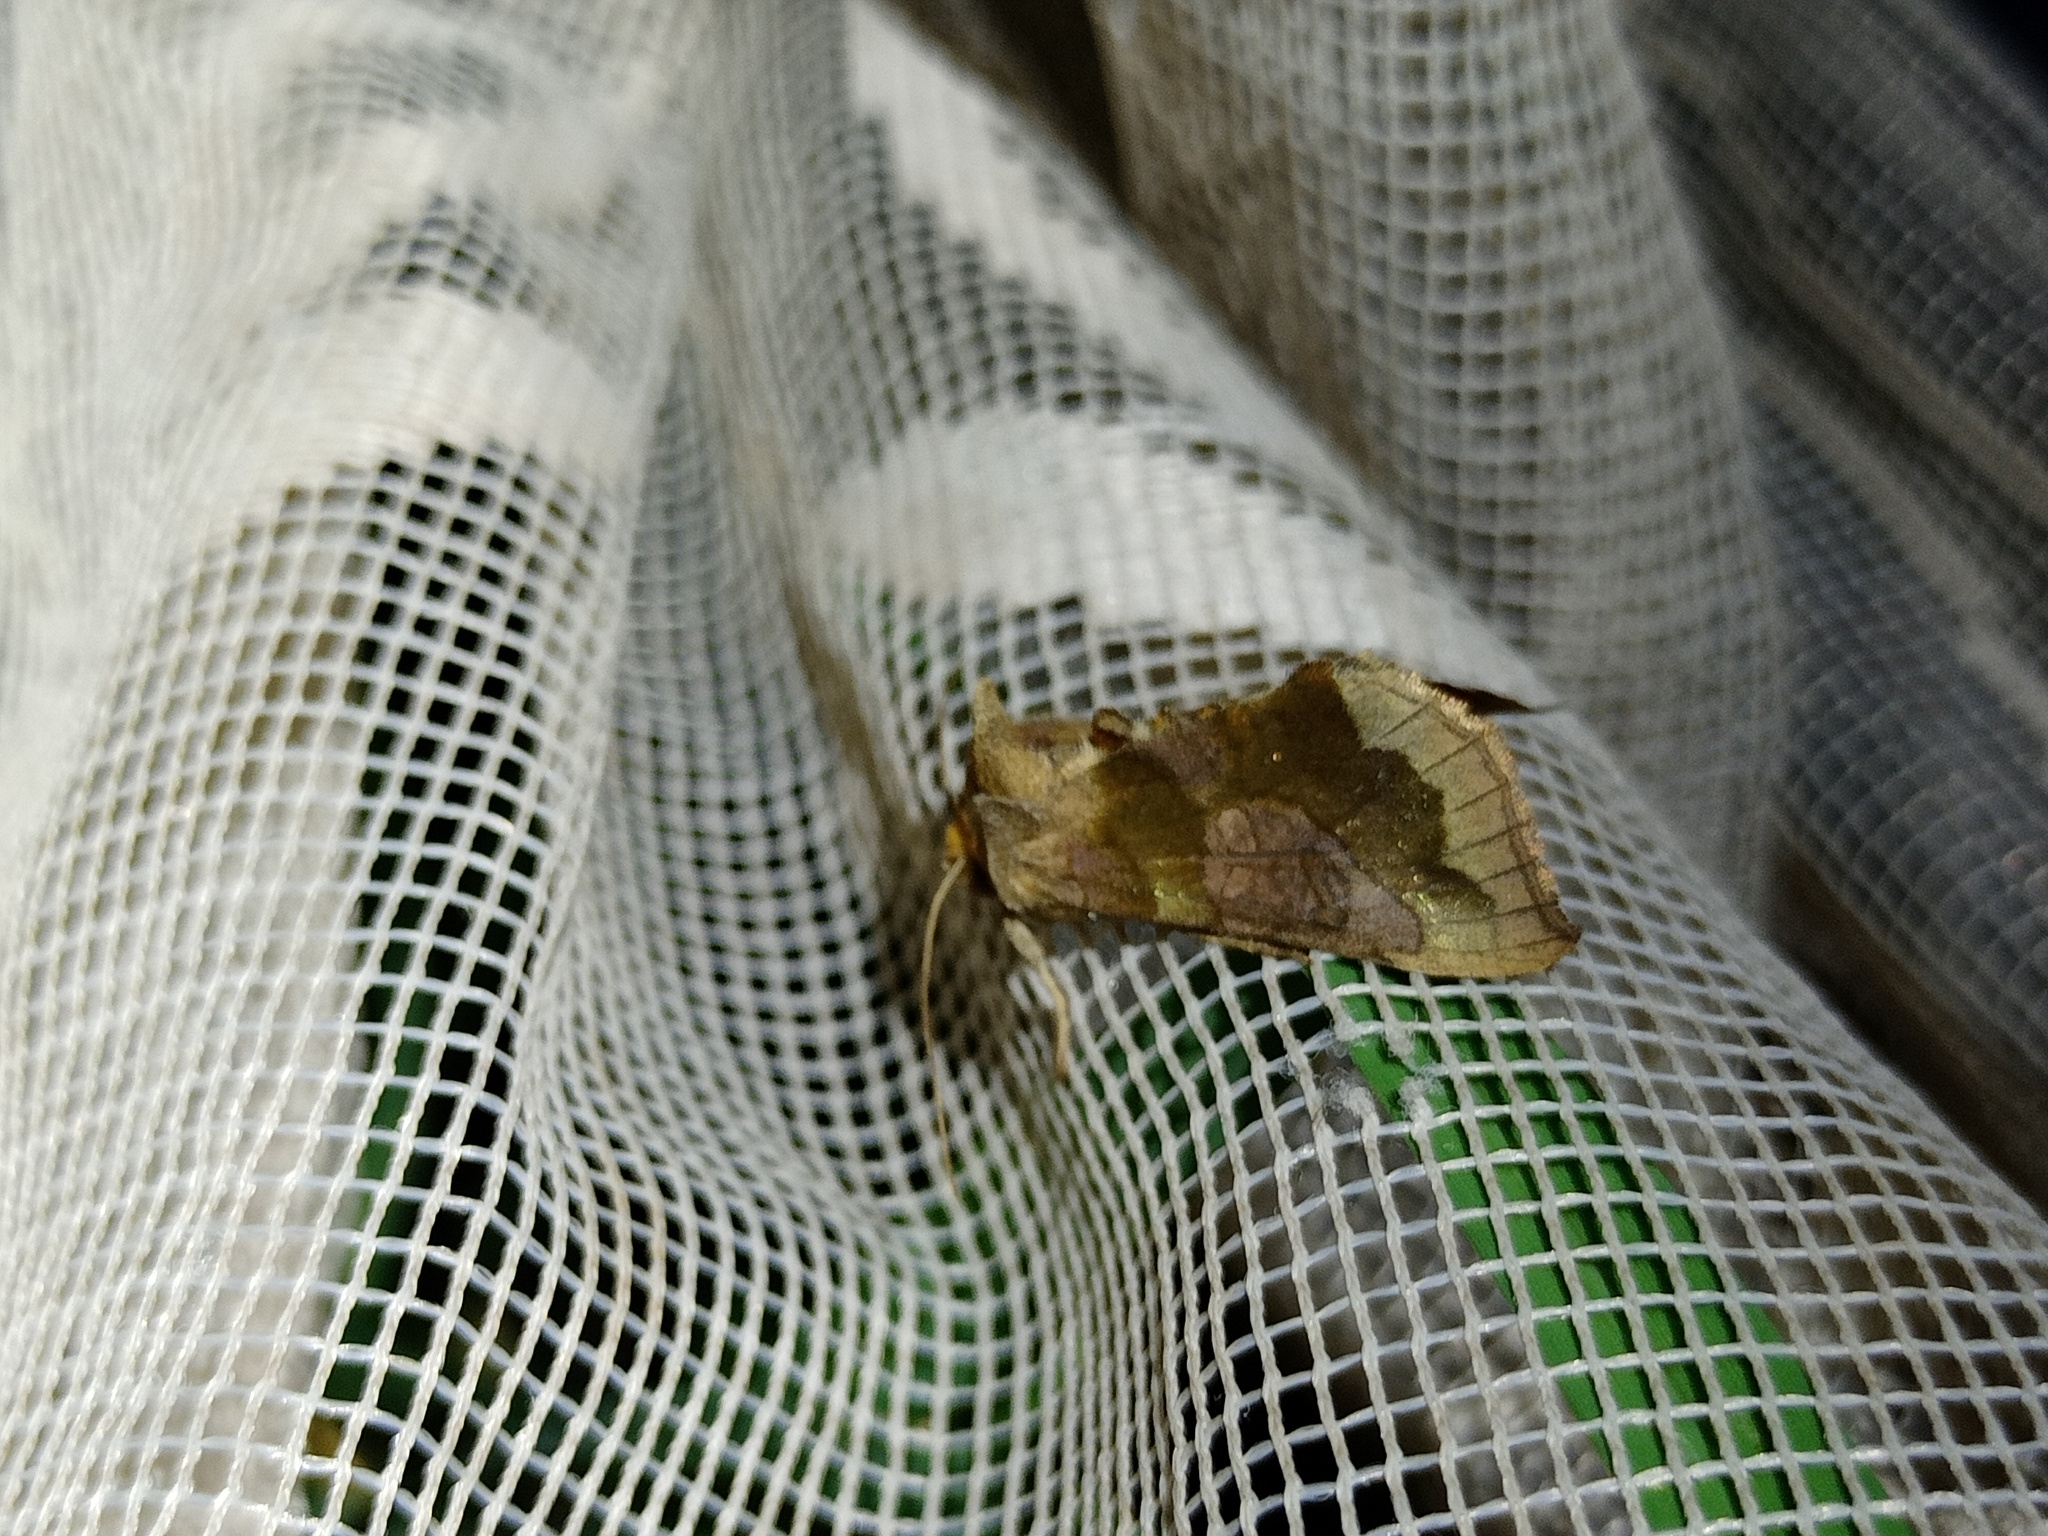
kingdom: Animalia
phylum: Arthropoda
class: Insecta
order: Lepidoptera
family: Noctuidae
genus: Diachrysia
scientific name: Diachrysia chrysitis
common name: Burnished brass
